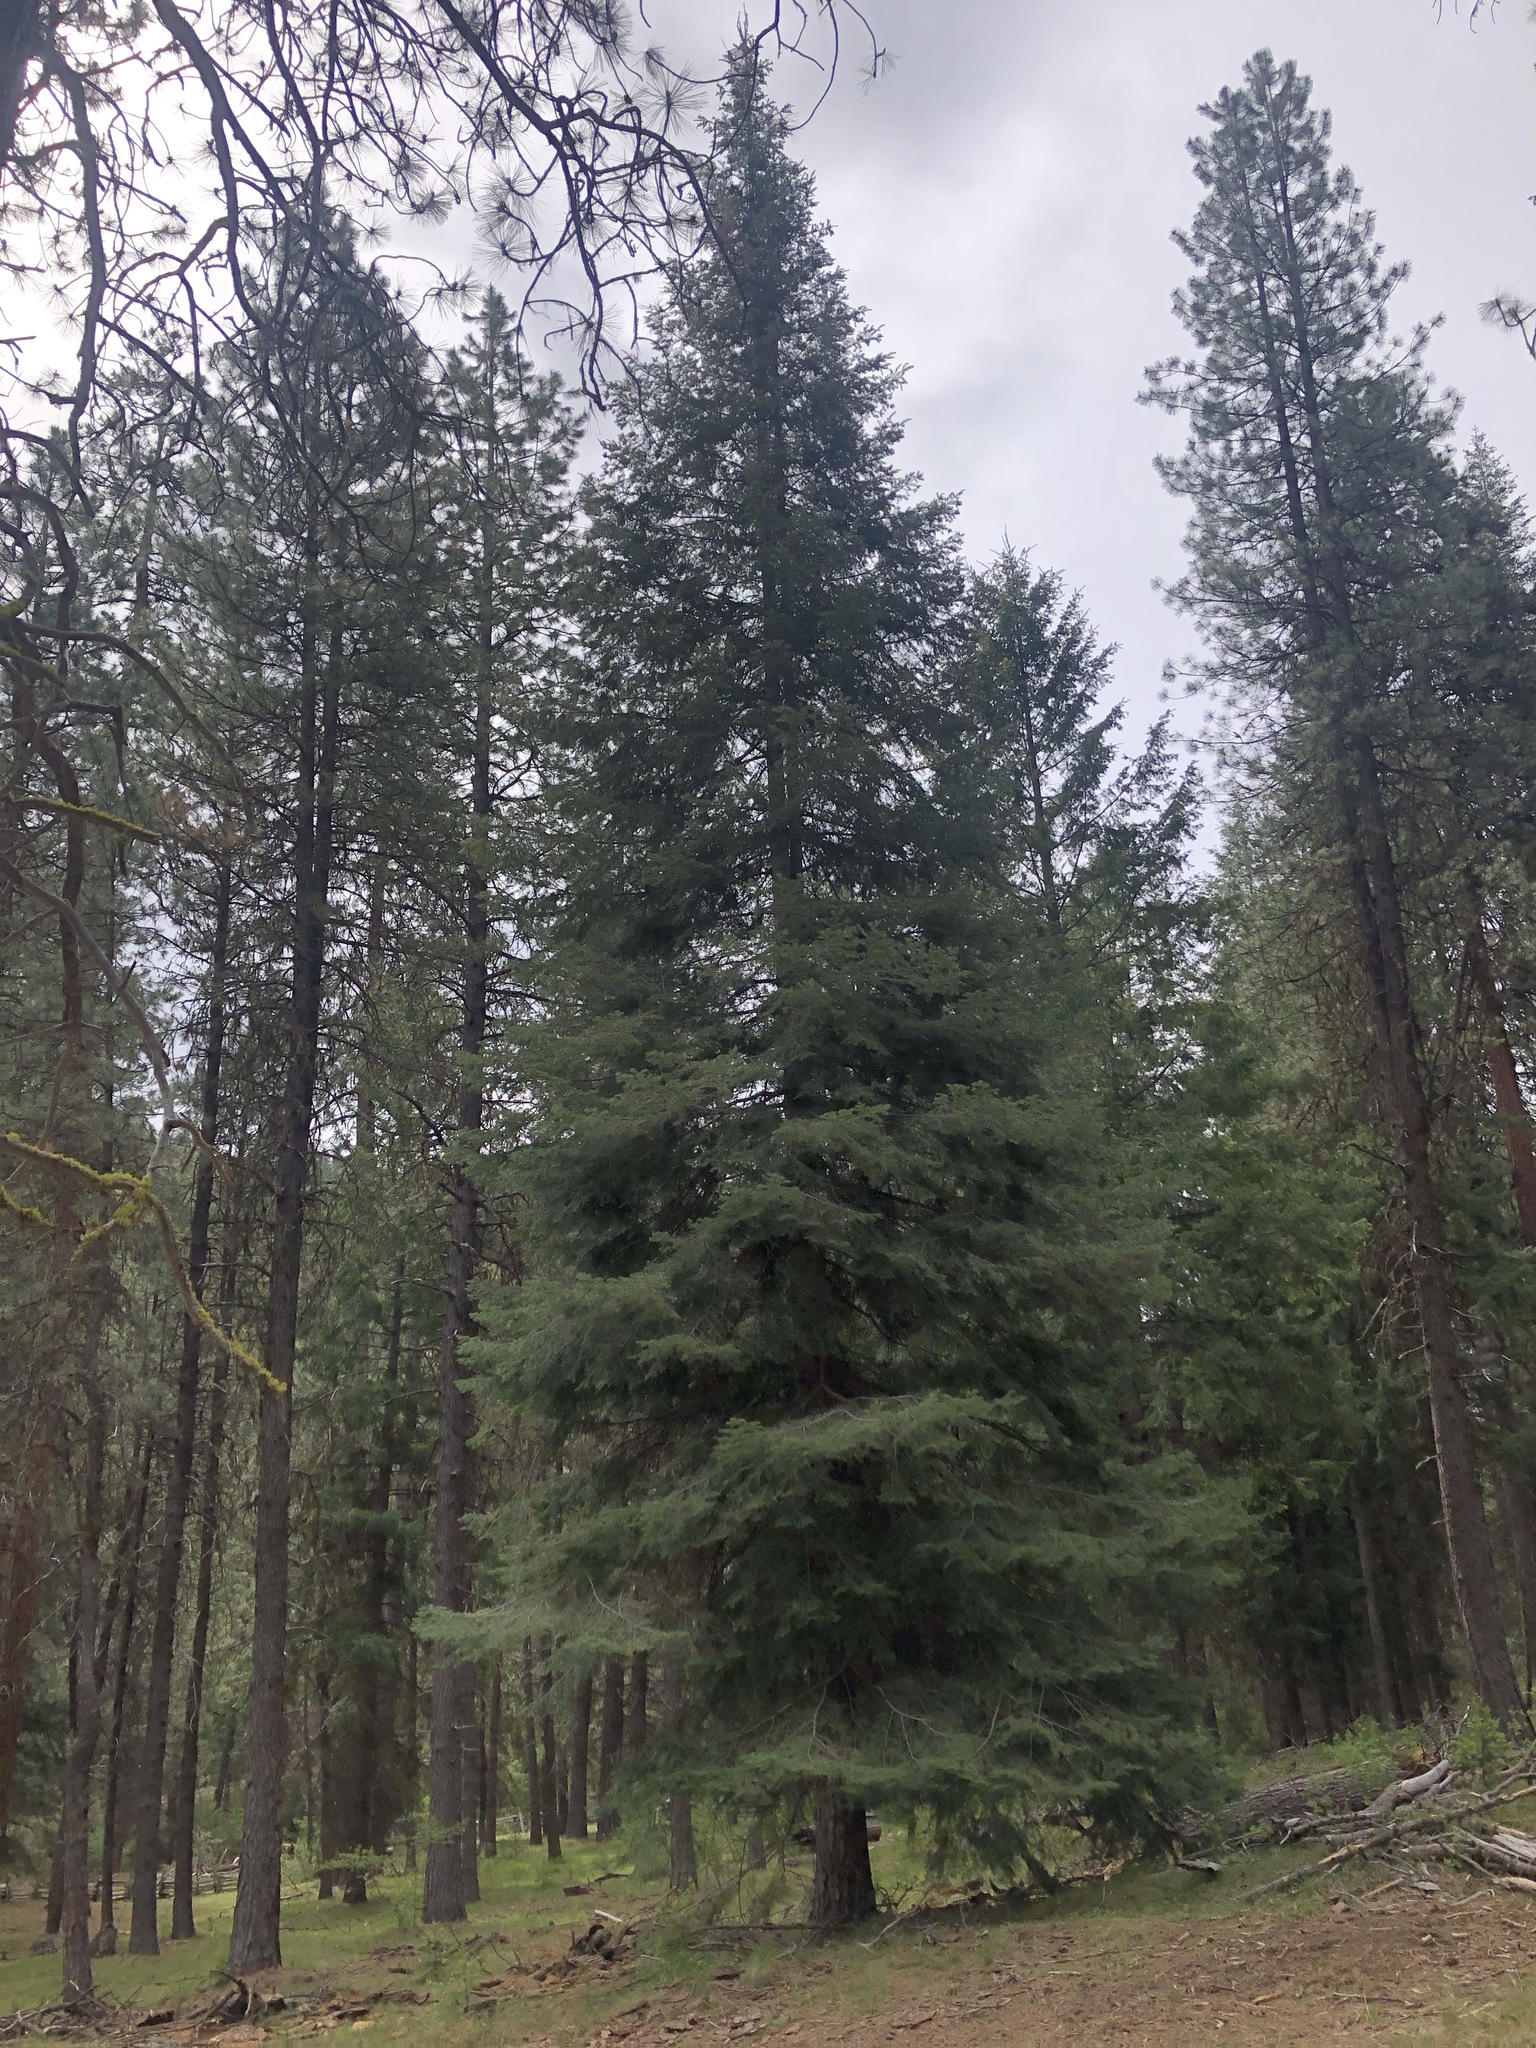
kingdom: Plantae
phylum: Tracheophyta
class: Pinopsida
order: Pinales
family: Pinaceae
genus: Abies
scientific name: Abies concolor
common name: Colorado fir
